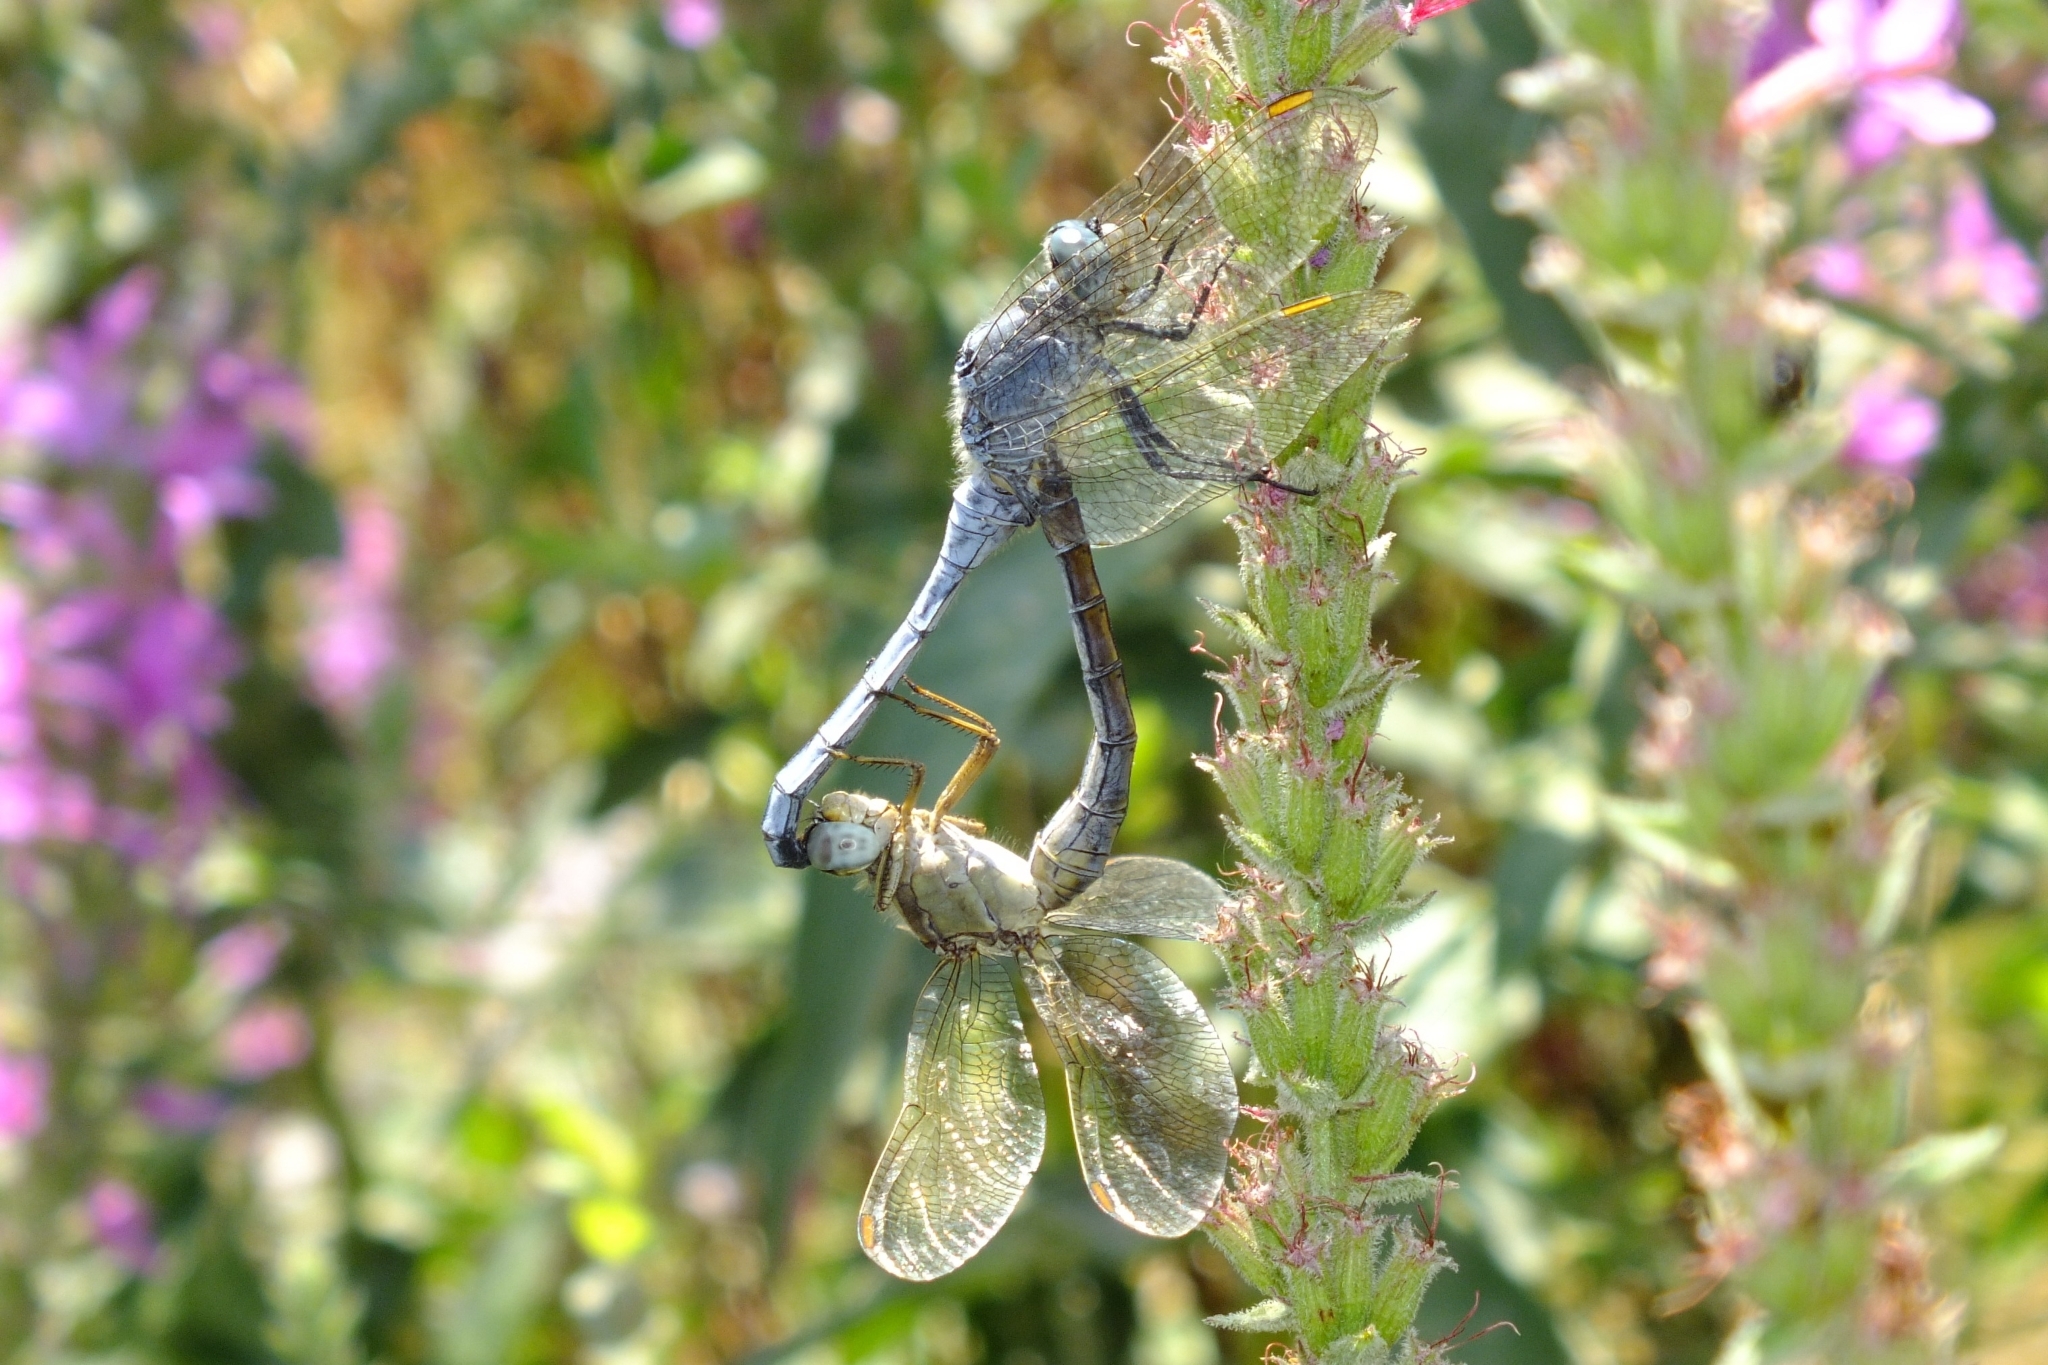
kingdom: Animalia
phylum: Arthropoda
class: Insecta
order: Odonata
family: Libellulidae
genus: Orthetrum
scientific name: Orthetrum coerulescens
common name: Keeled skimmer
